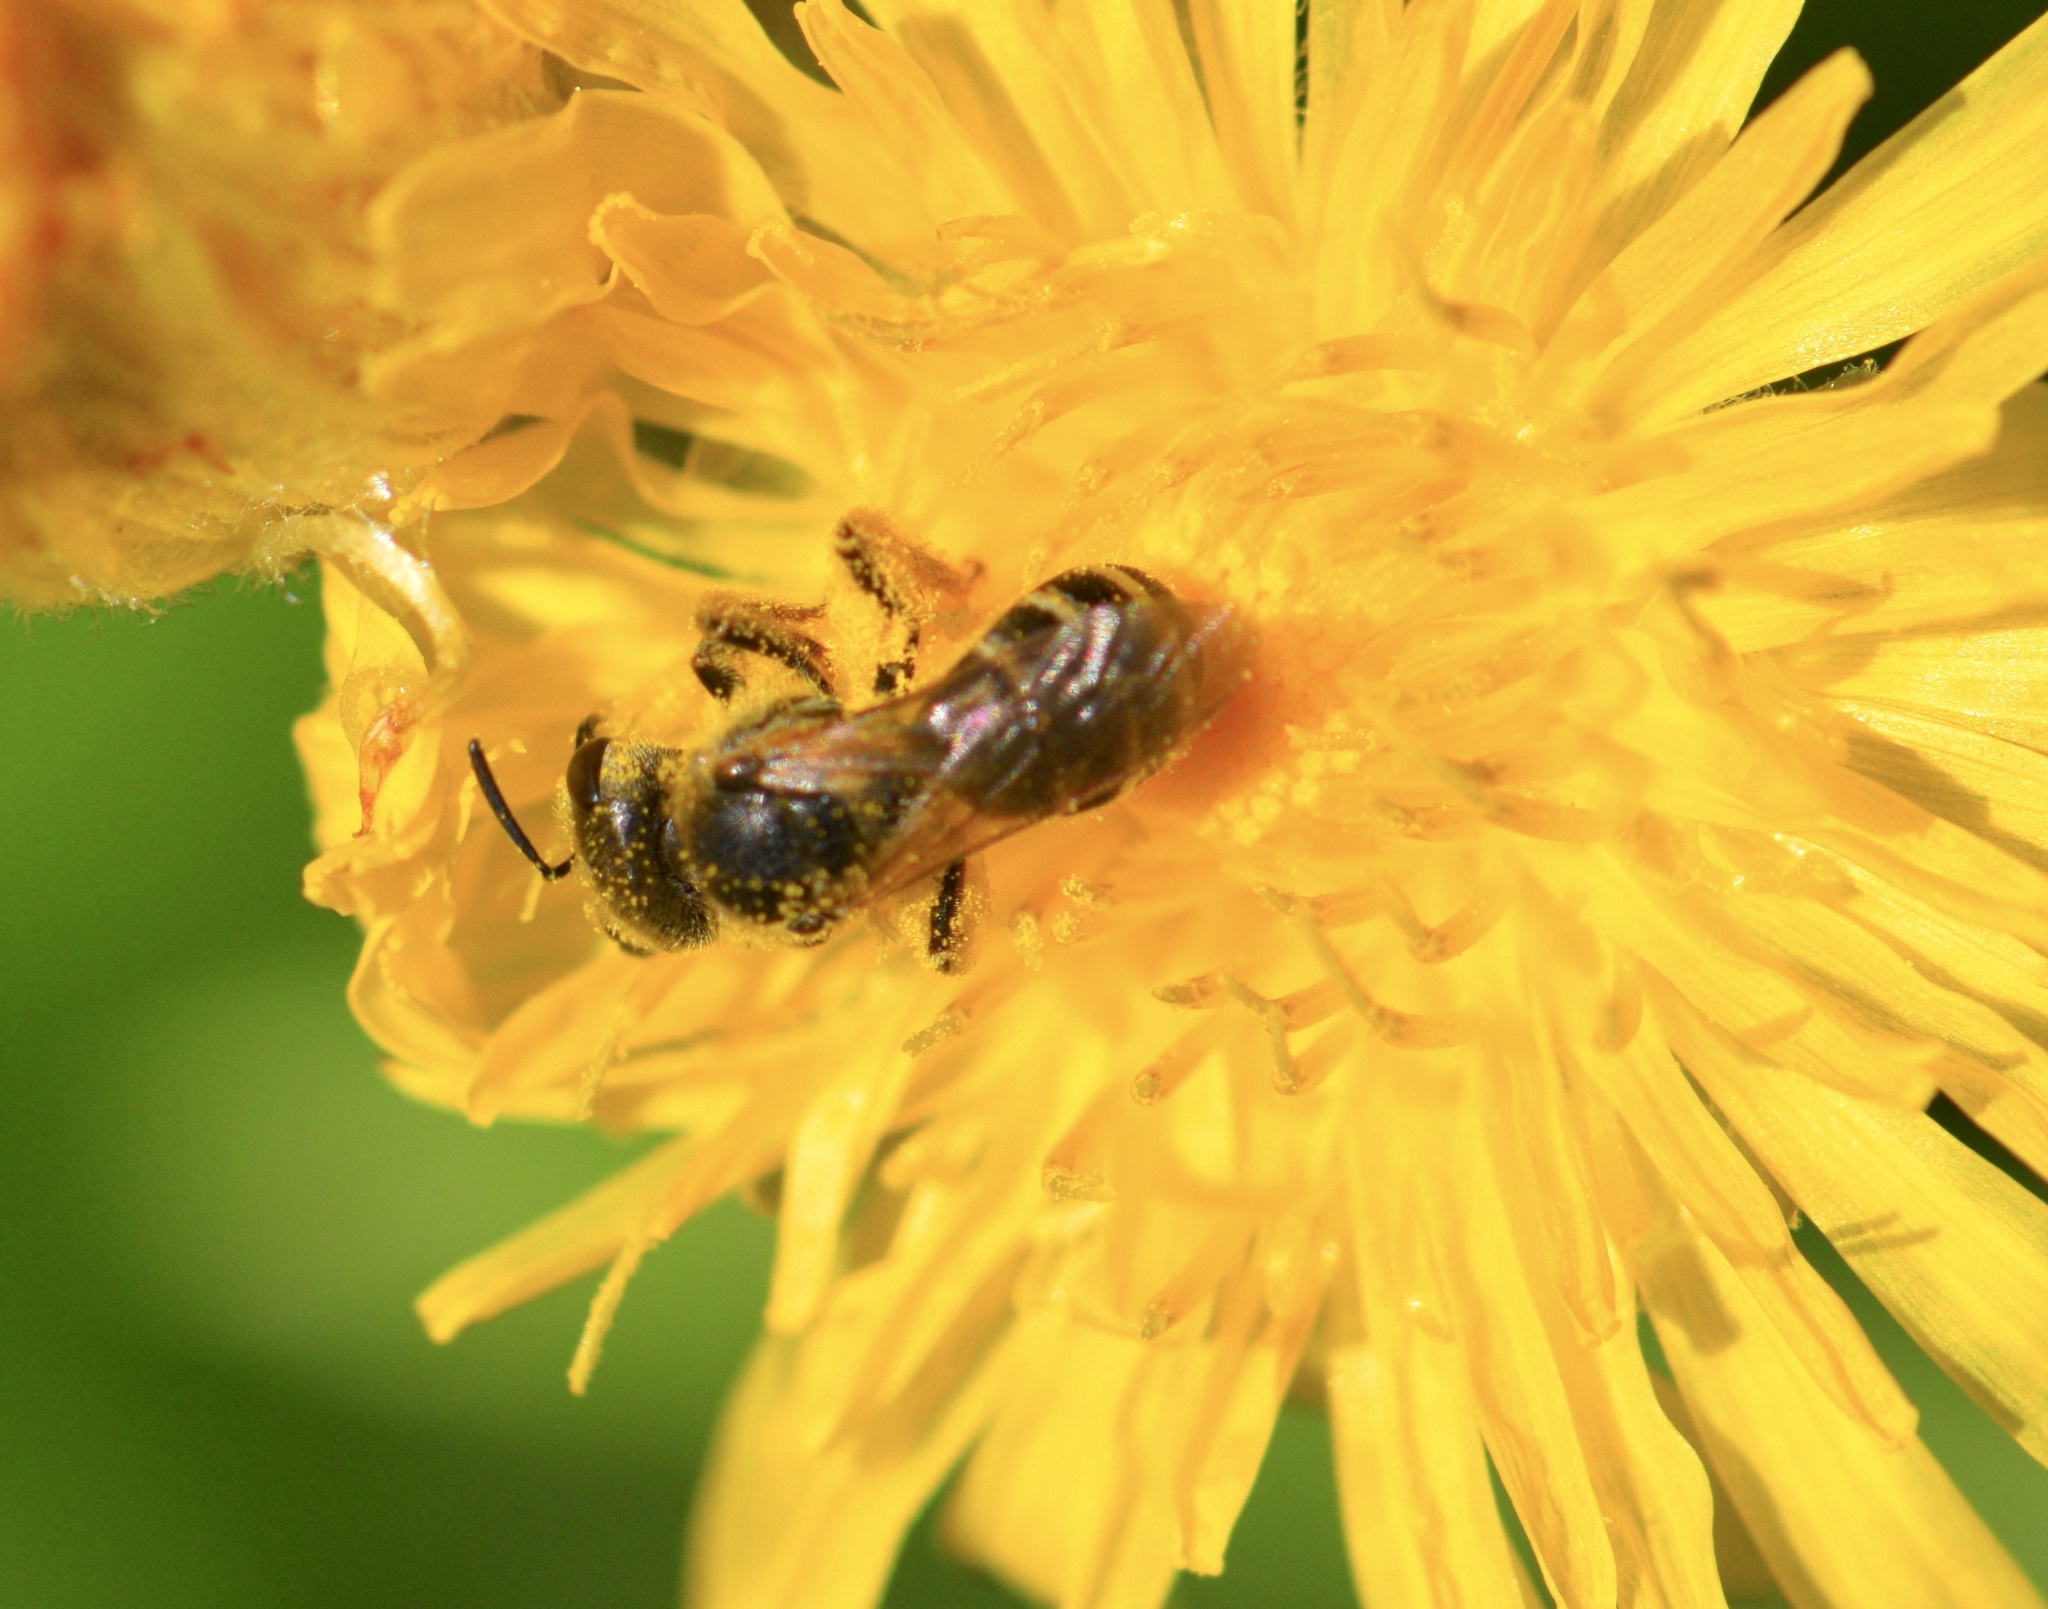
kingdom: Animalia
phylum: Arthropoda
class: Insecta
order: Hymenoptera
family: Halictidae
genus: Halictus
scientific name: Halictus ligatus
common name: Ligated furrow bee
